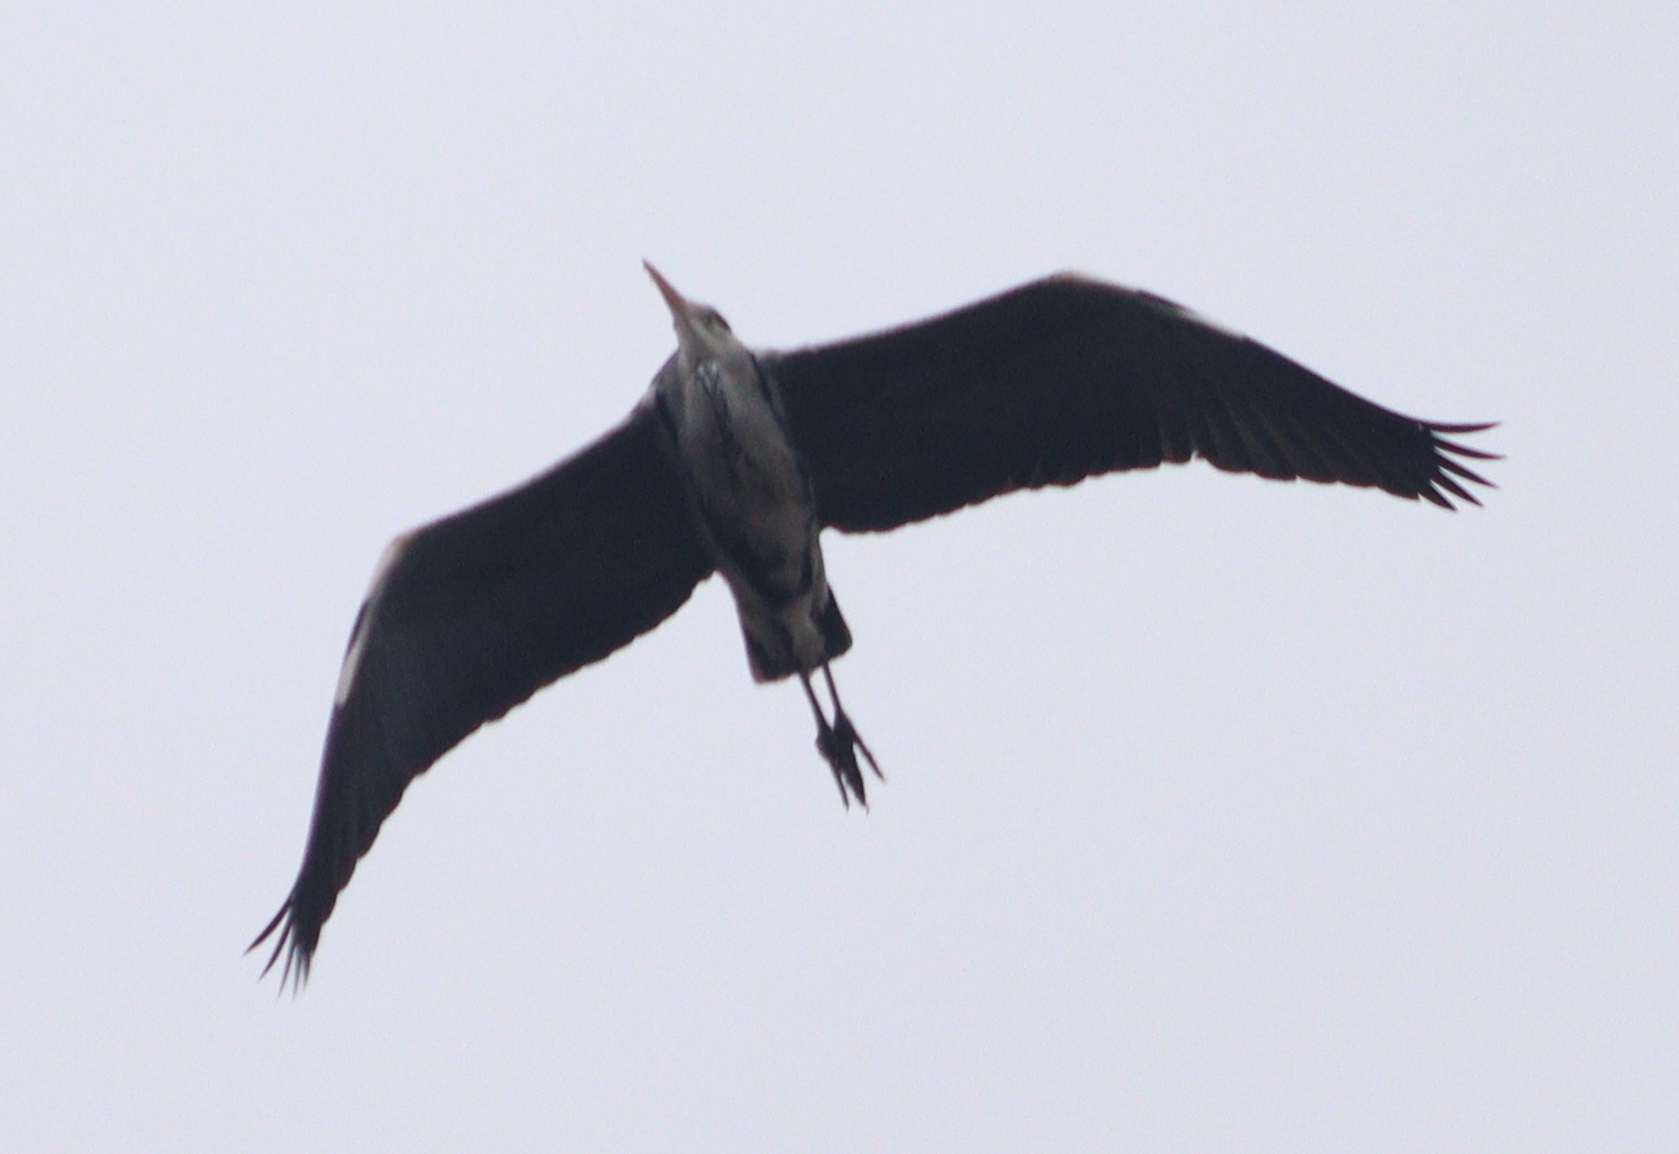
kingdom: Animalia
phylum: Chordata
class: Aves
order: Pelecaniformes
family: Ardeidae
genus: Ardea
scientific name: Ardea cinerea
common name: Grey heron
